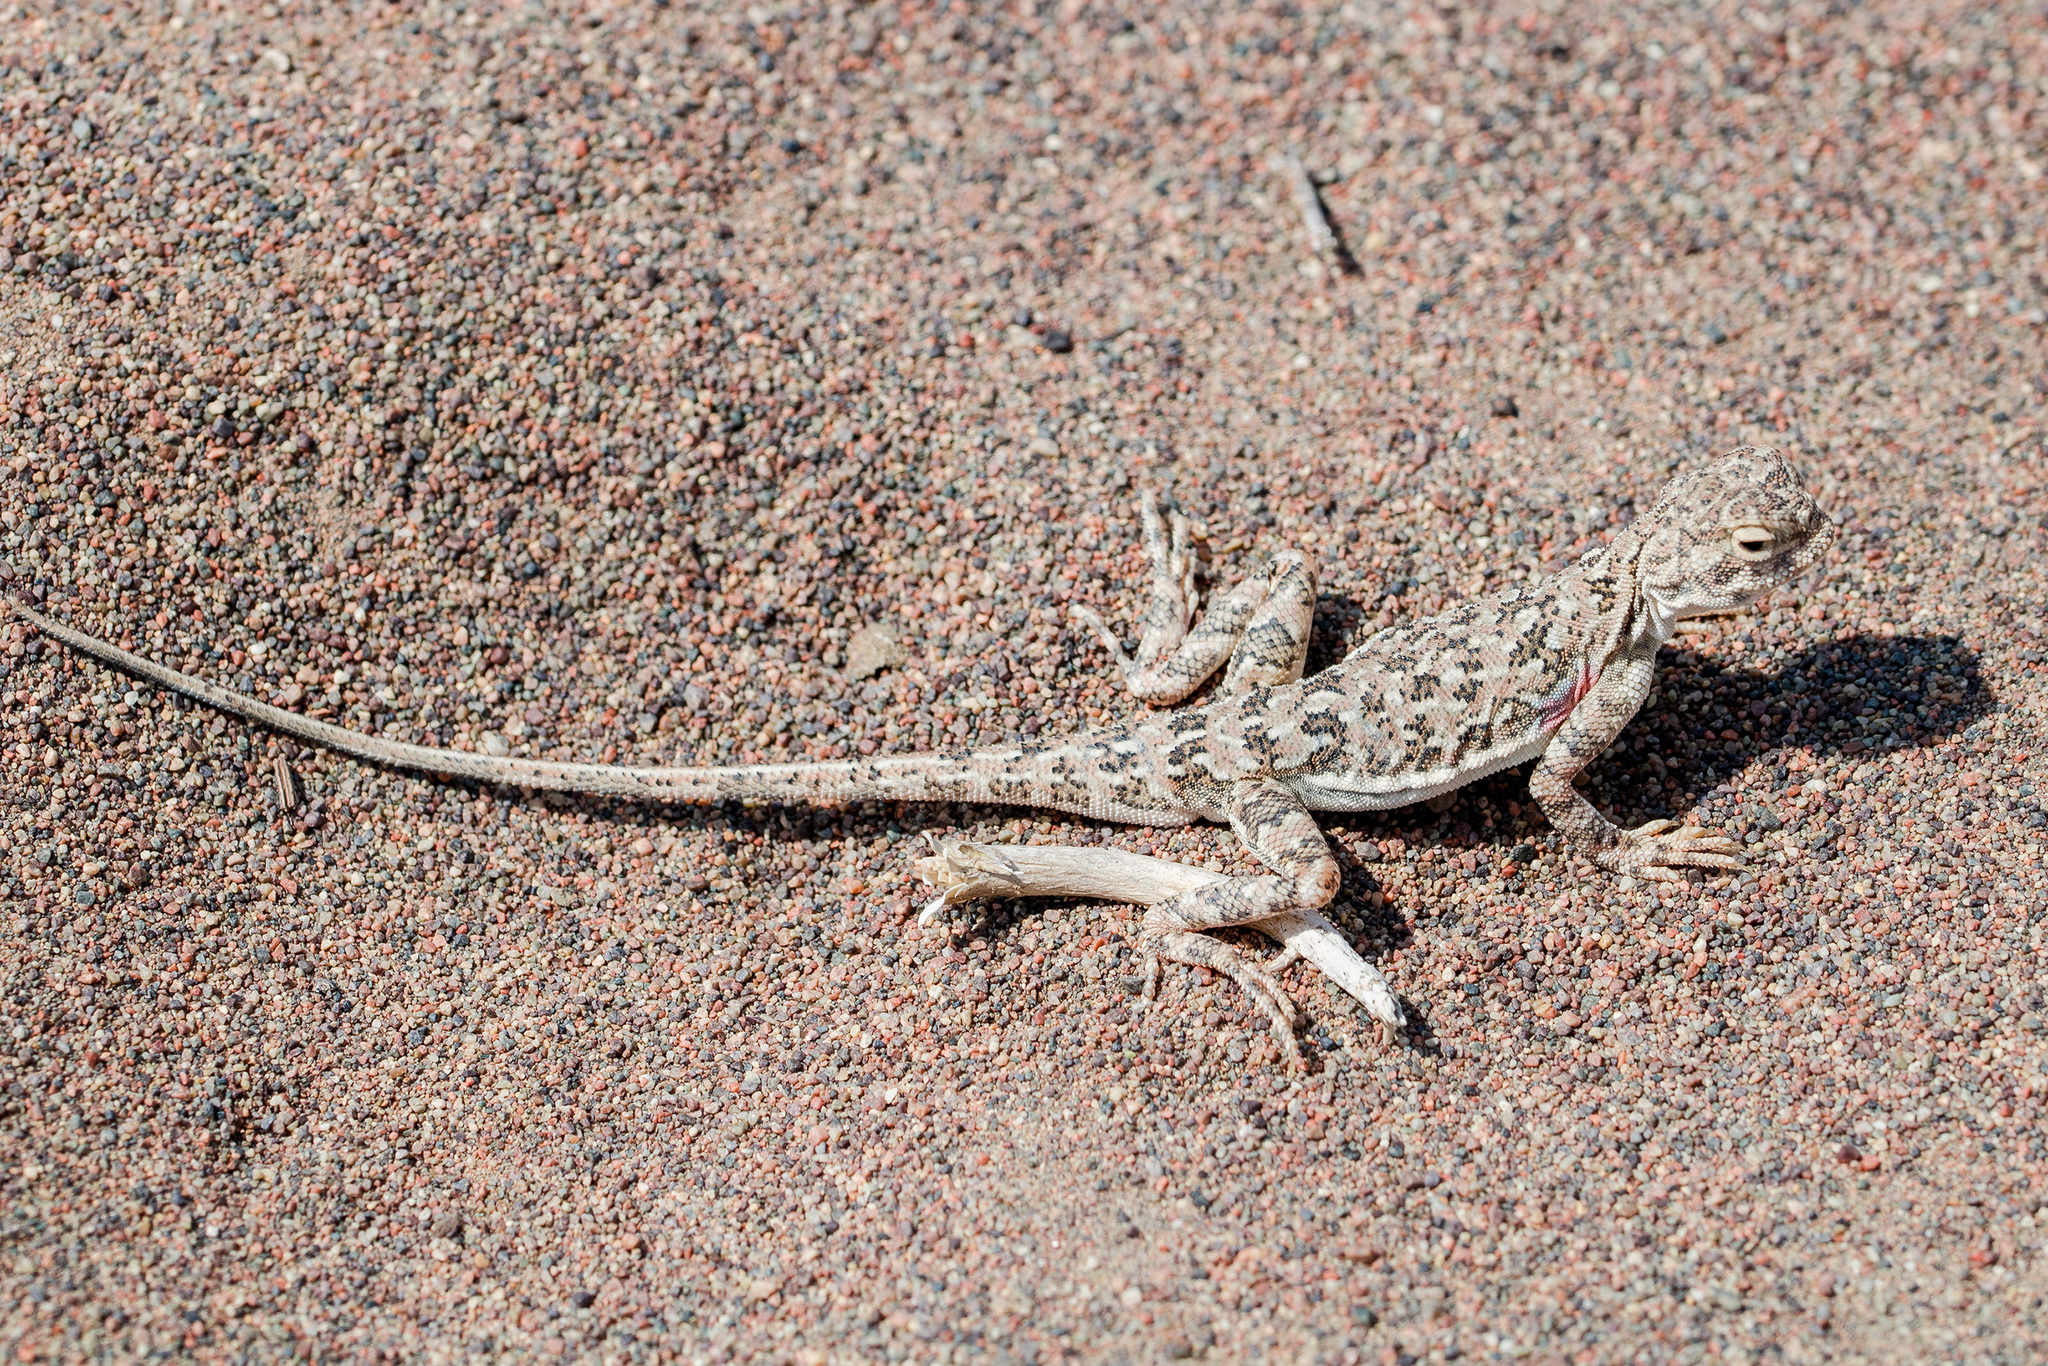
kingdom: Animalia
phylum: Chordata
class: Squamata
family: Agamidae
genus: Phrynocephalus
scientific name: Phrynocephalus guttatus
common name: Spotted toadhead agama
